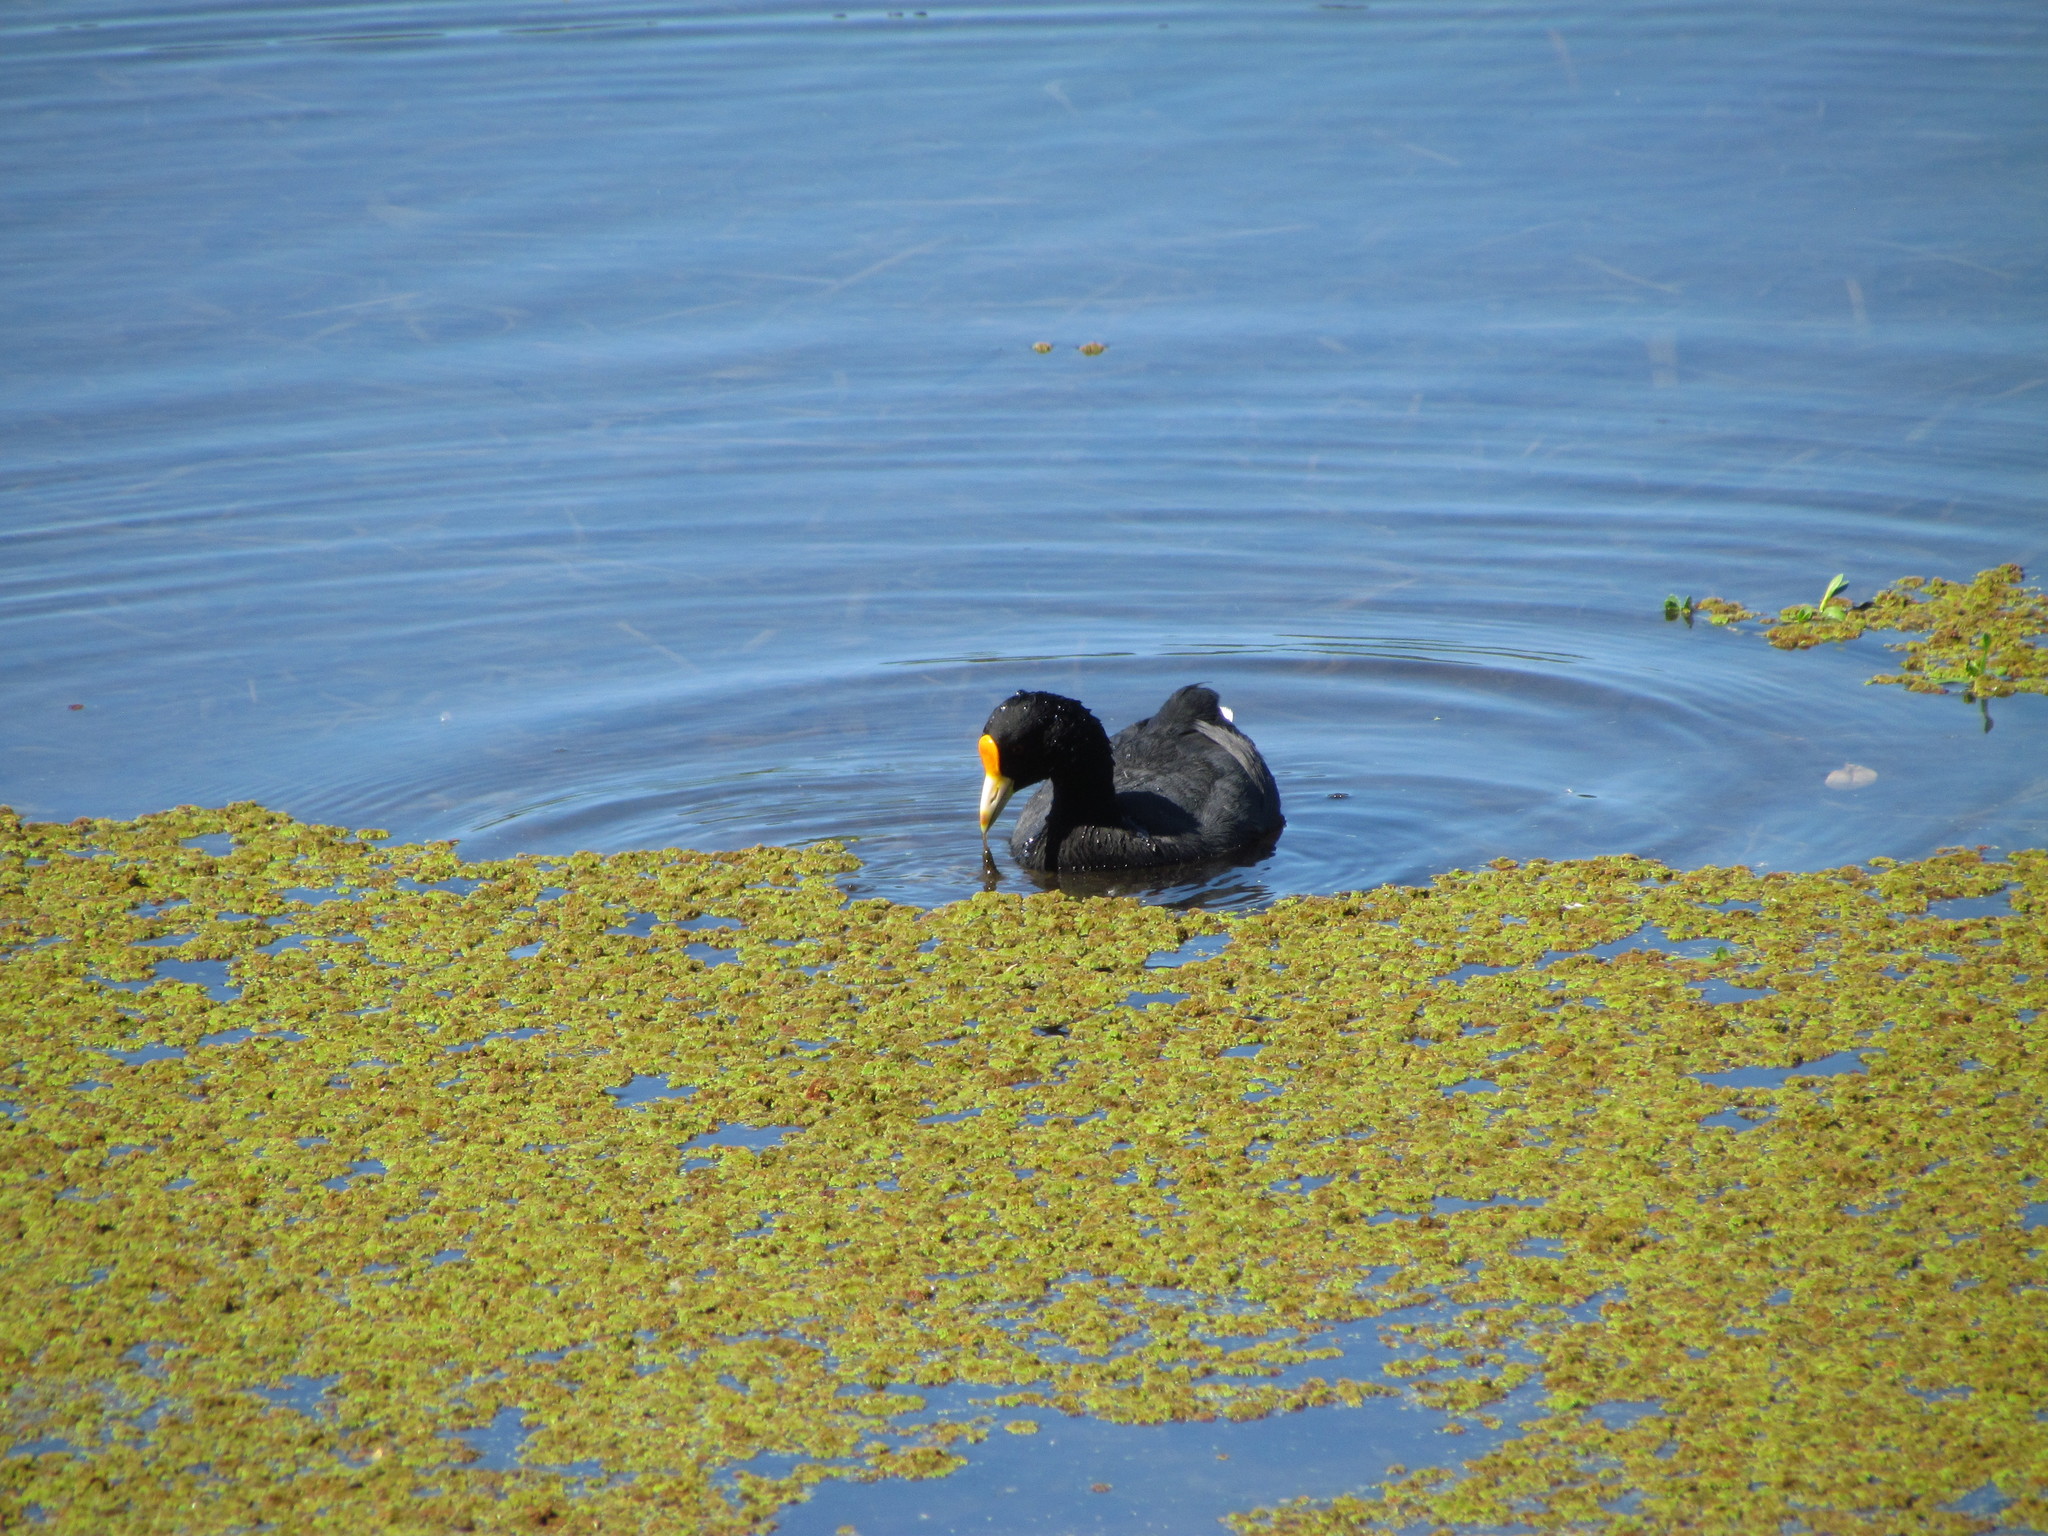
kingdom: Animalia
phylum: Chordata
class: Aves
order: Gruiformes
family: Rallidae
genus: Fulica
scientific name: Fulica leucoptera
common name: White-winged coot
